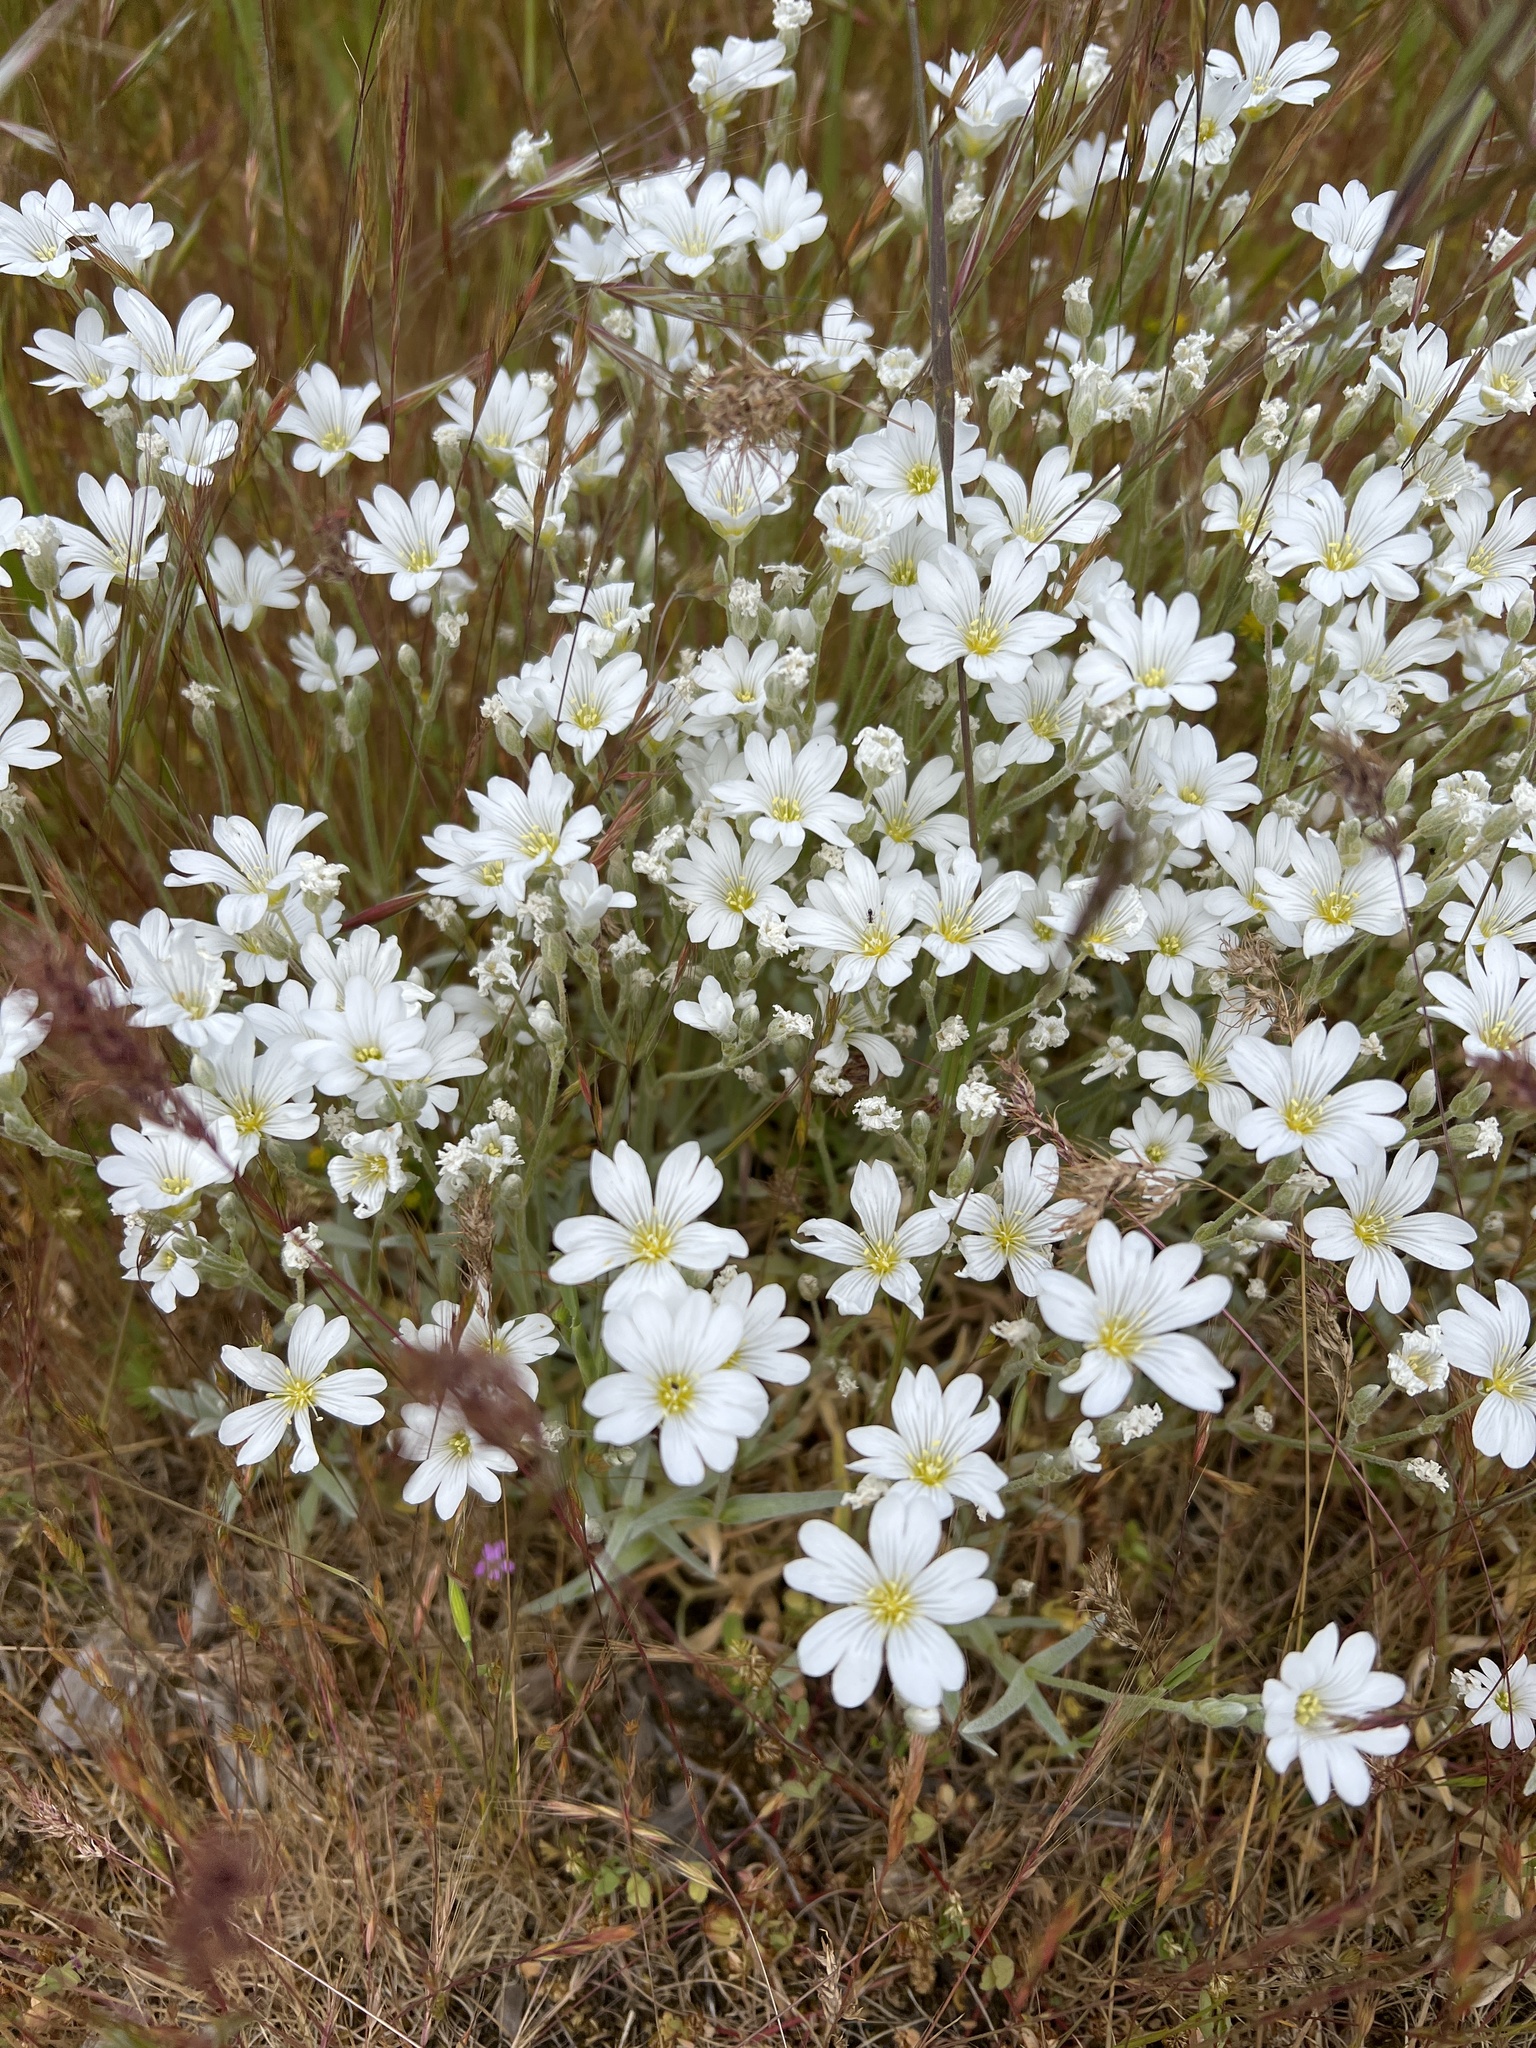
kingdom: Plantae
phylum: Tracheophyta
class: Magnoliopsida
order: Caryophyllales
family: Caryophyllaceae
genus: Cerastium
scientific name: Cerastium tomentosum
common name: Snow-in-summer
